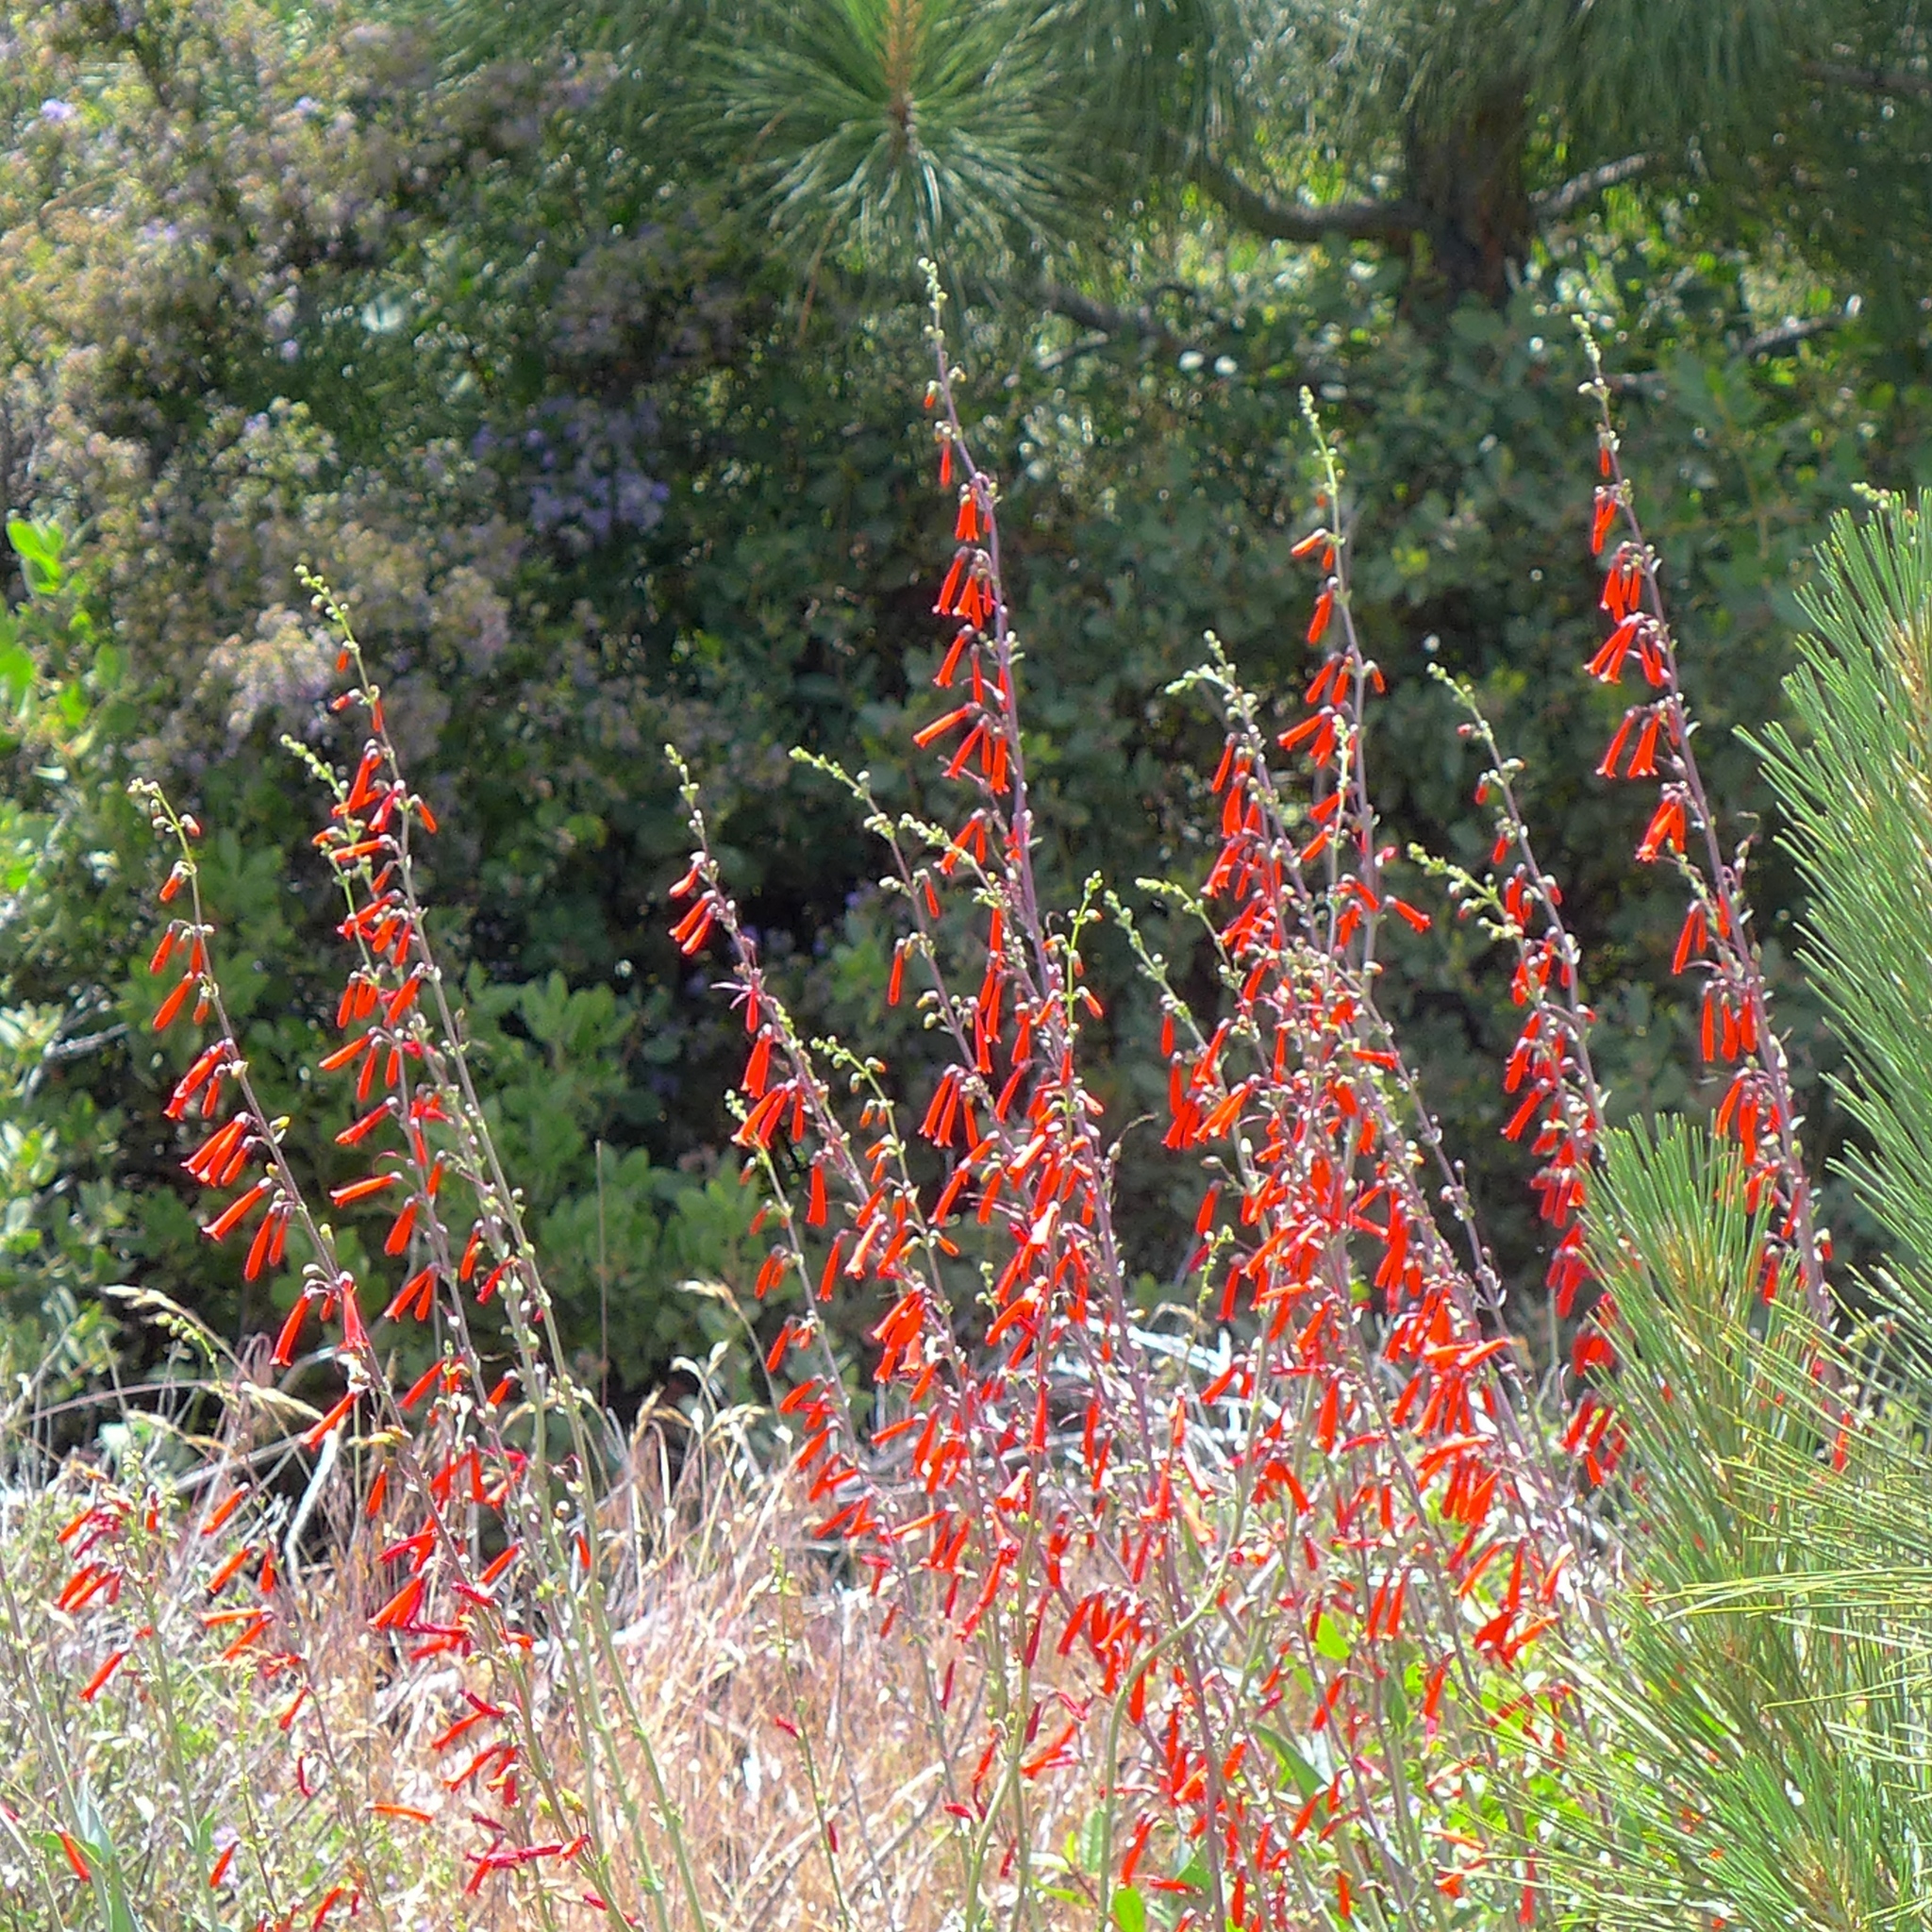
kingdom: Plantae
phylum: Tracheophyta
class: Magnoliopsida
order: Lamiales
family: Plantaginaceae
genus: Penstemon
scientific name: Penstemon centranthifolius
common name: Scarlet bugler
